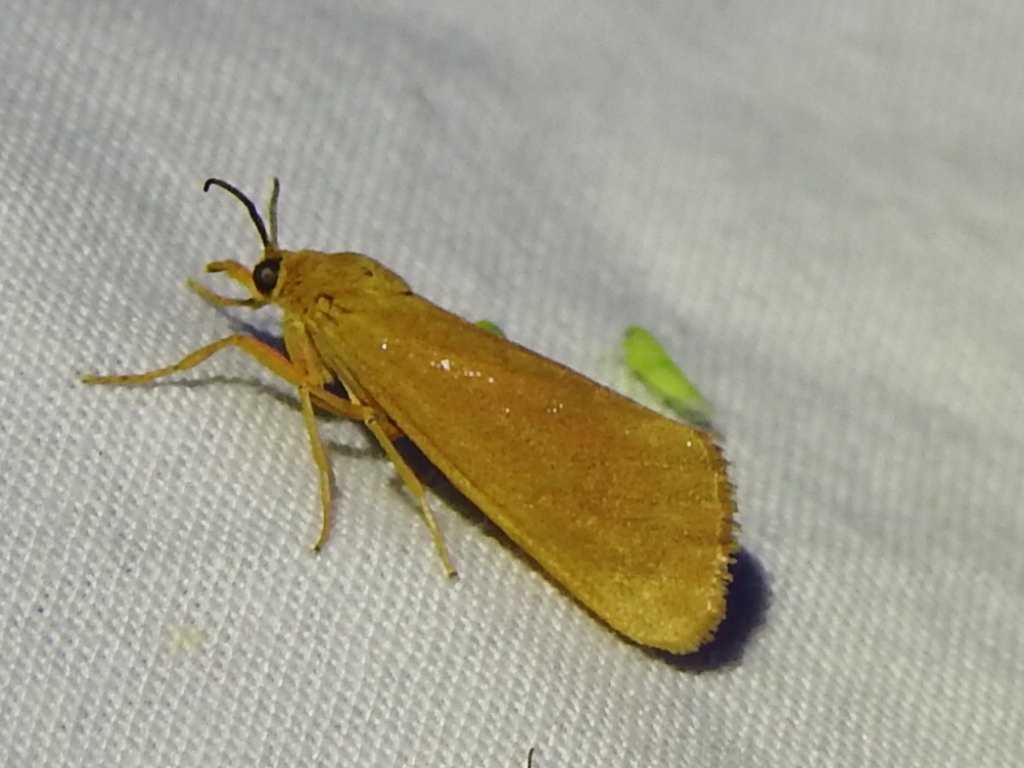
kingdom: Animalia
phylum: Arthropoda
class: Insecta
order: Lepidoptera
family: Erebidae
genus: Virbia
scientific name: Virbia aurantiaca
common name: Orange virbia moth
